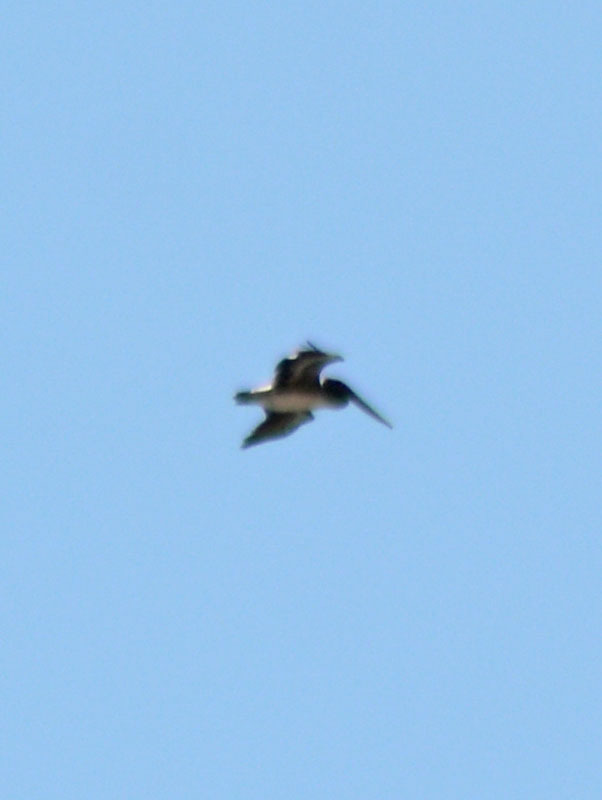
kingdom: Animalia
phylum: Chordata
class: Aves
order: Pelecaniformes
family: Pelecanidae
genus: Pelecanus
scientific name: Pelecanus occidentalis
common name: Brown pelican
